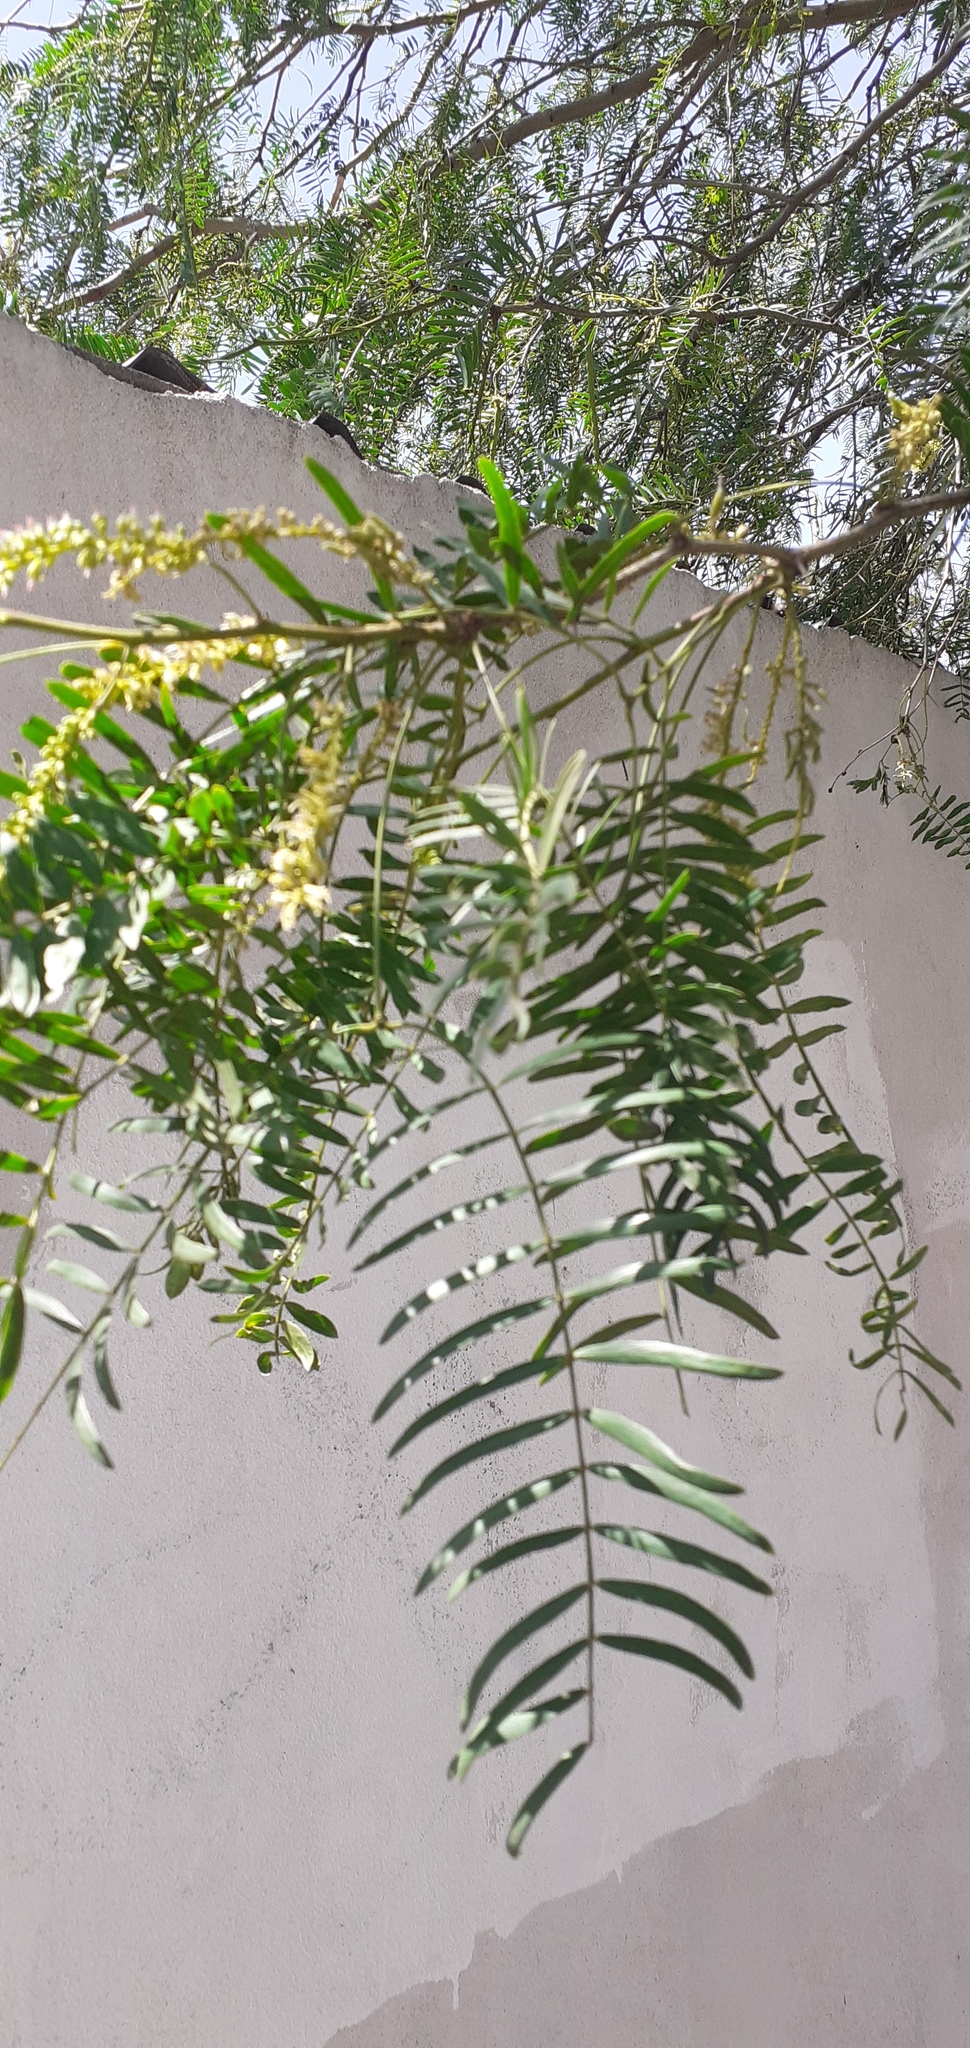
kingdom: Plantae
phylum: Tracheophyta
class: Magnoliopsida
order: Fabales
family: Fabaceae
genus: Prosopis
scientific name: Prosopis glandulosa
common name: Honey mesquite
